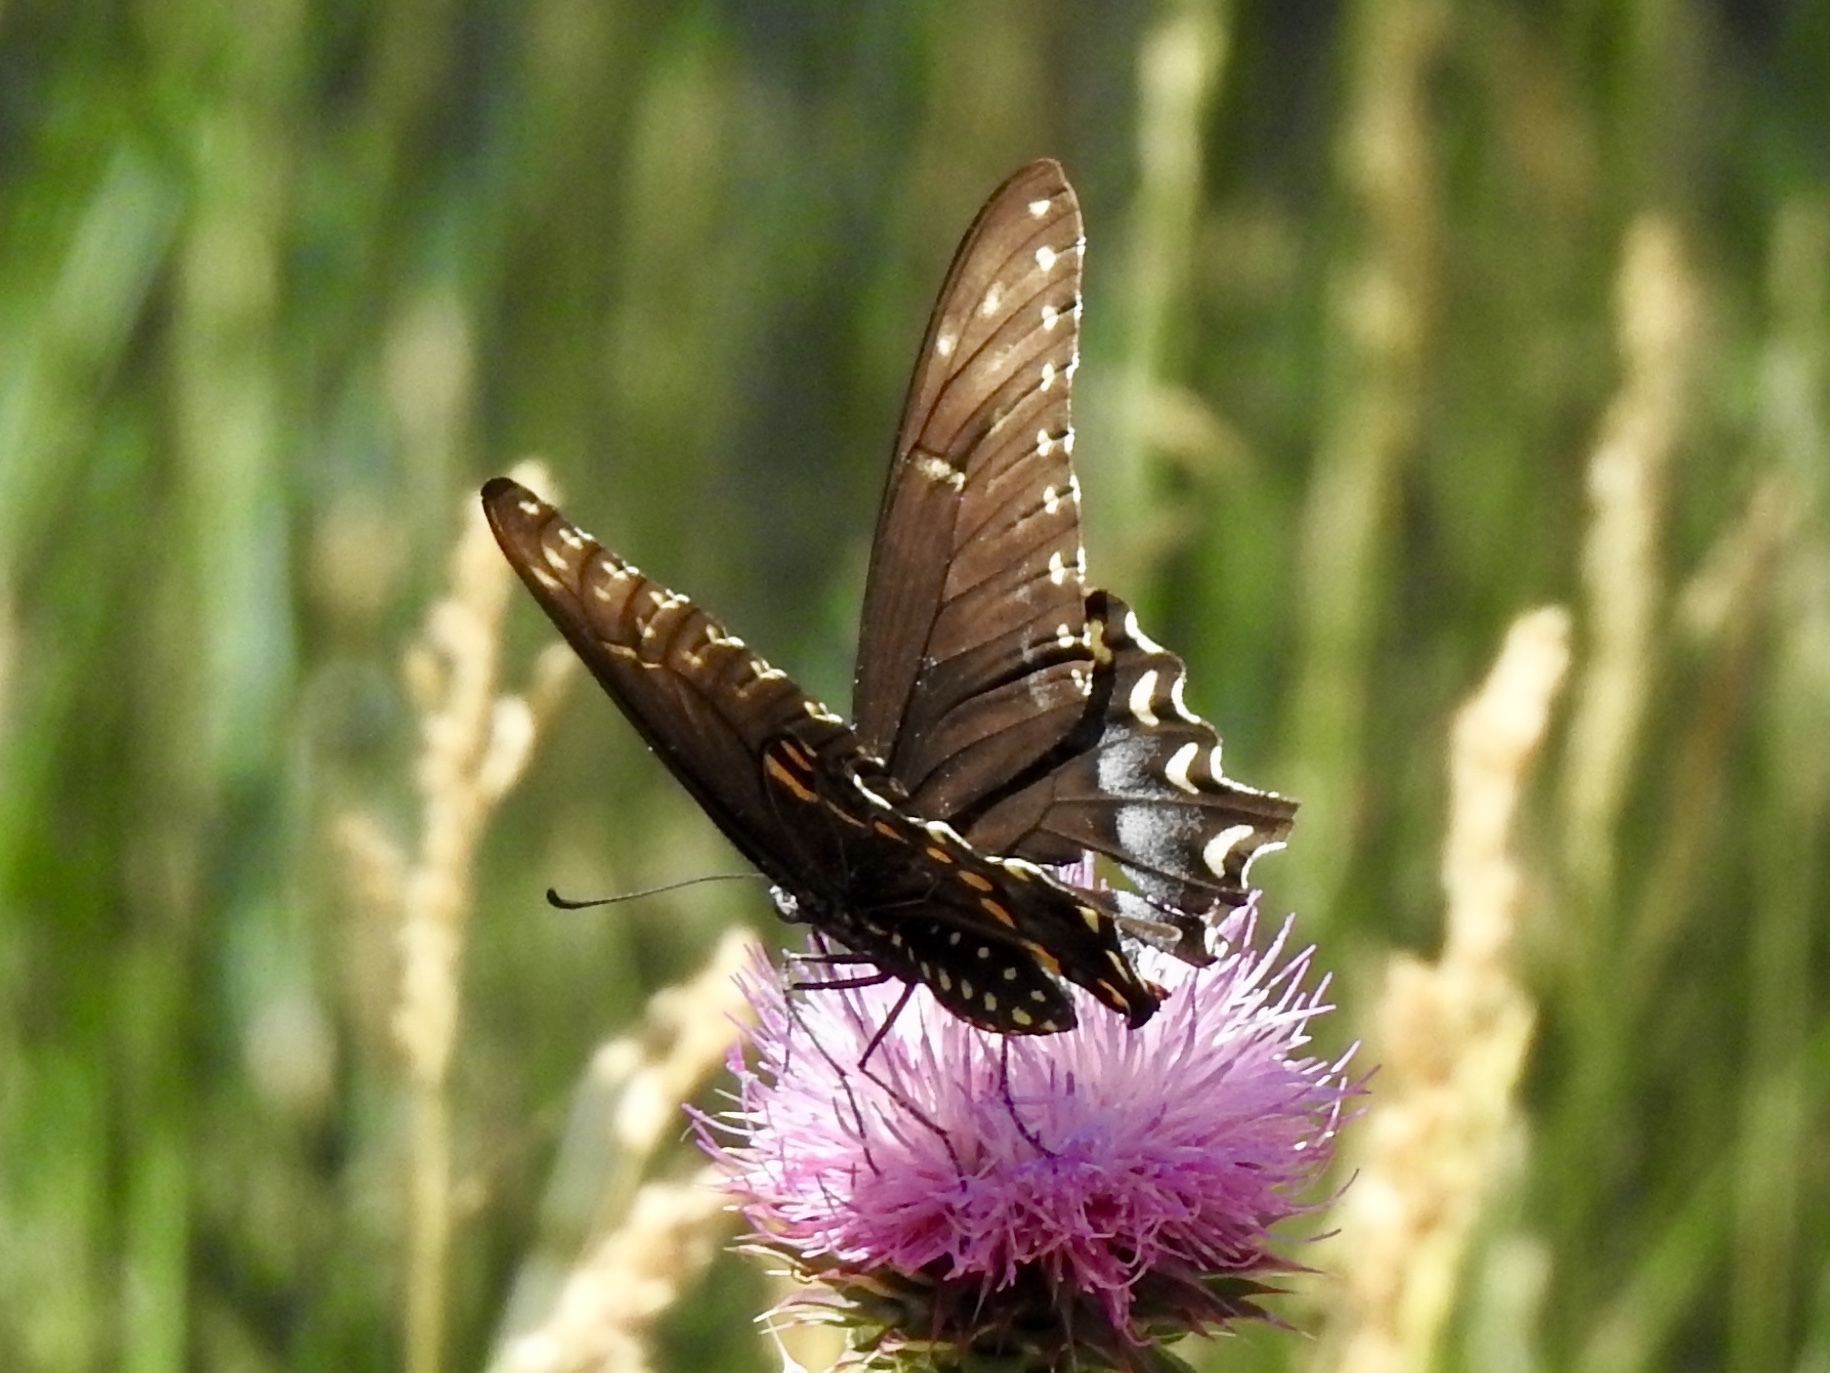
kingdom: Animalia
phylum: Arthropoda
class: Insecta
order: Lepidoptera
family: Papilionidae
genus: Papilio
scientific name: Papilio polyxenes
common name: Black swallowtail
